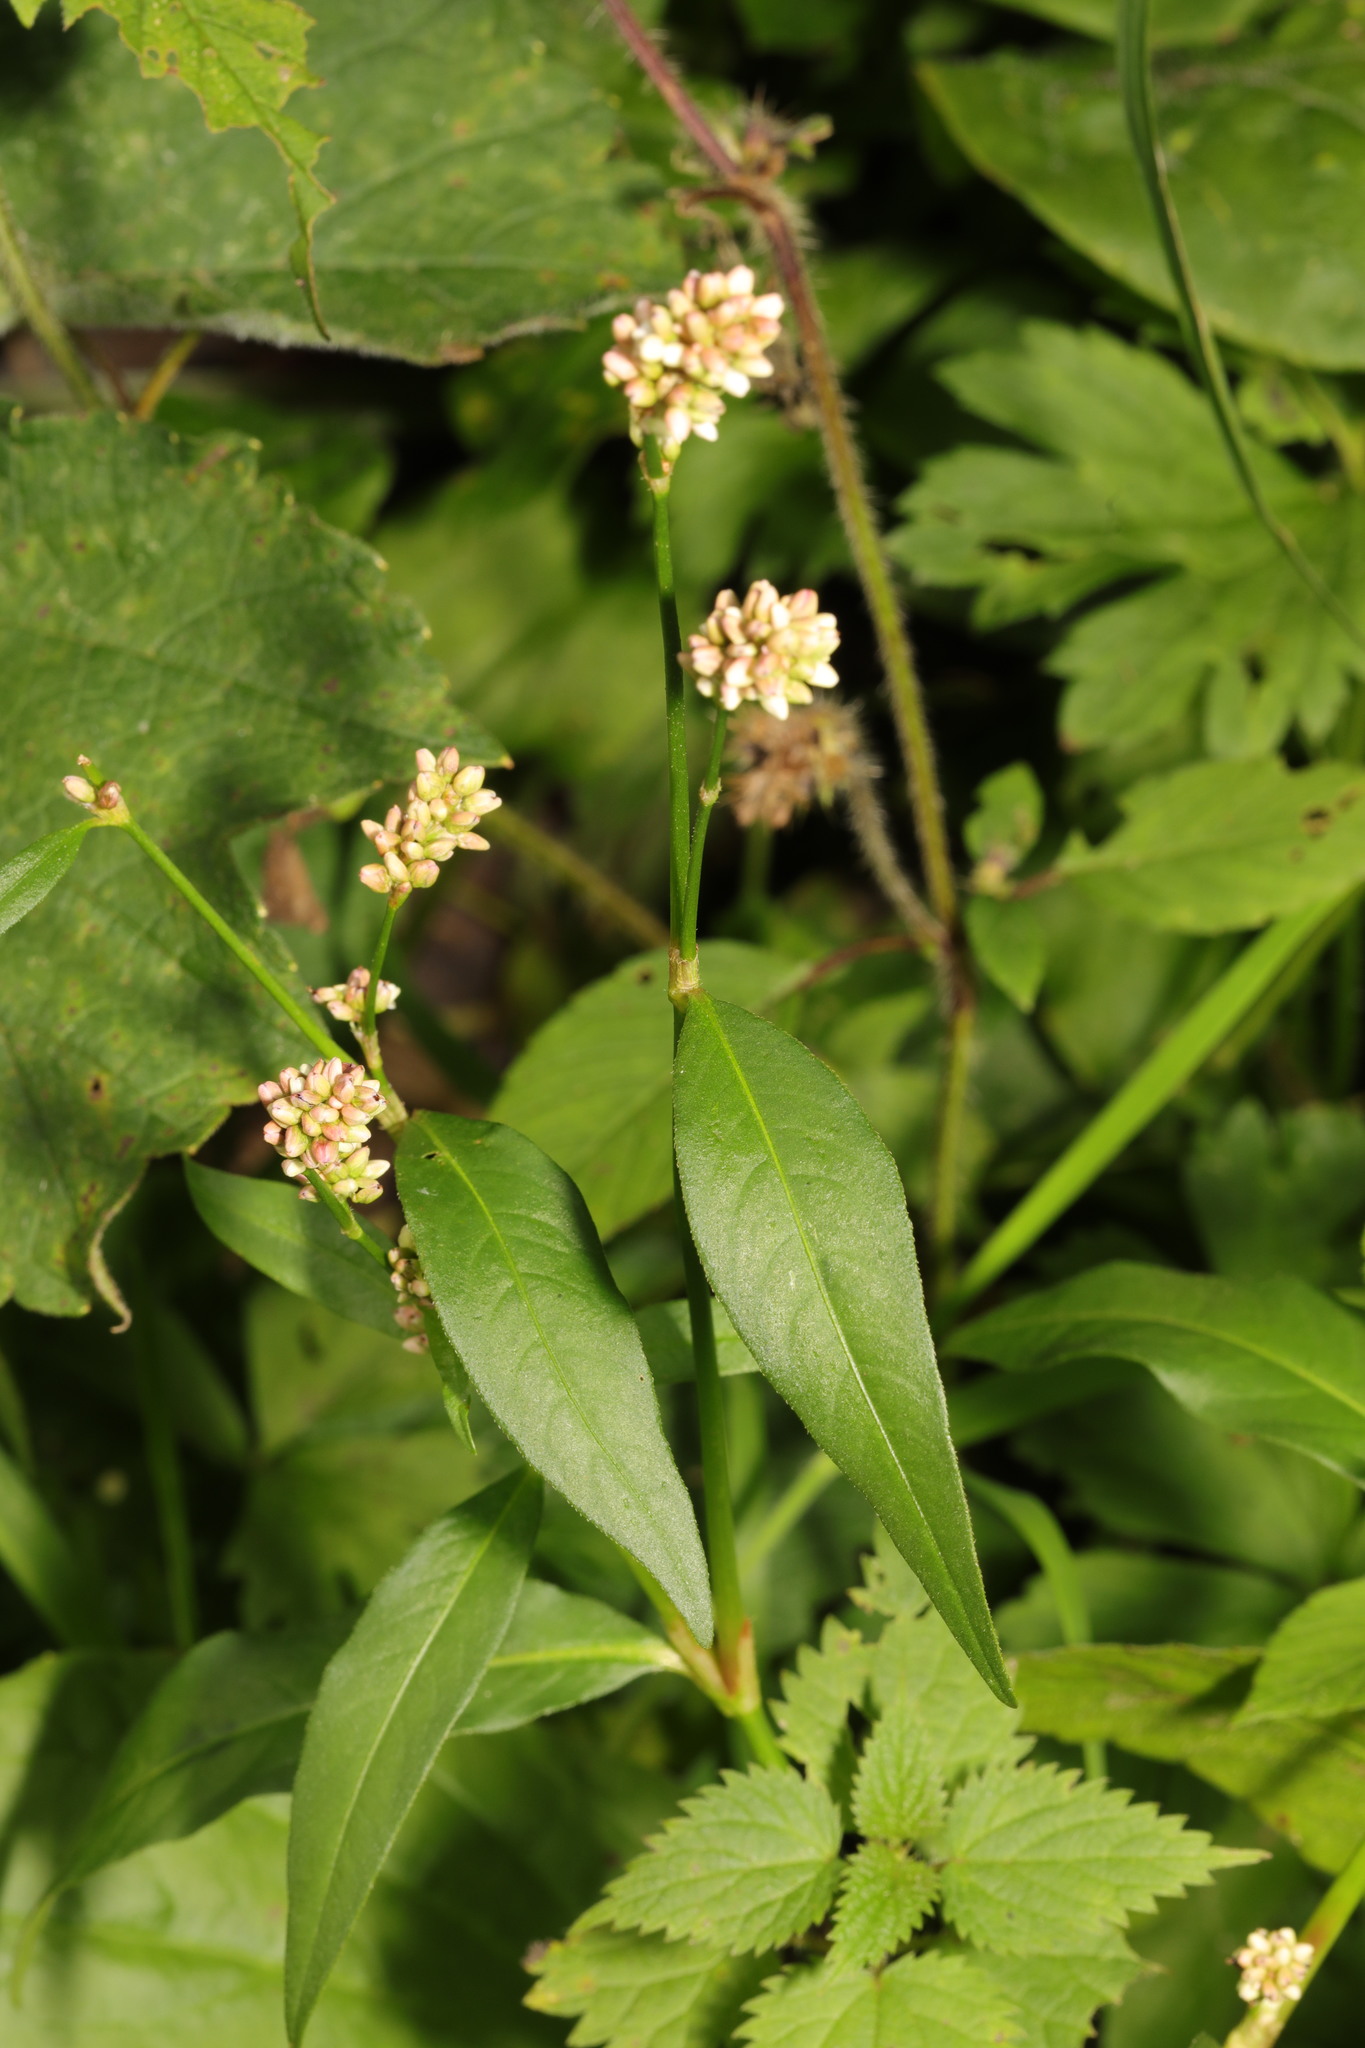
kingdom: Plantae
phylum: Tracheophyta
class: Magnoliopsida
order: Caryophyllales
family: Polygonaceae
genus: Persicaria
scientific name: Persicaria lapathifolia
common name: Curlytop knotweed
